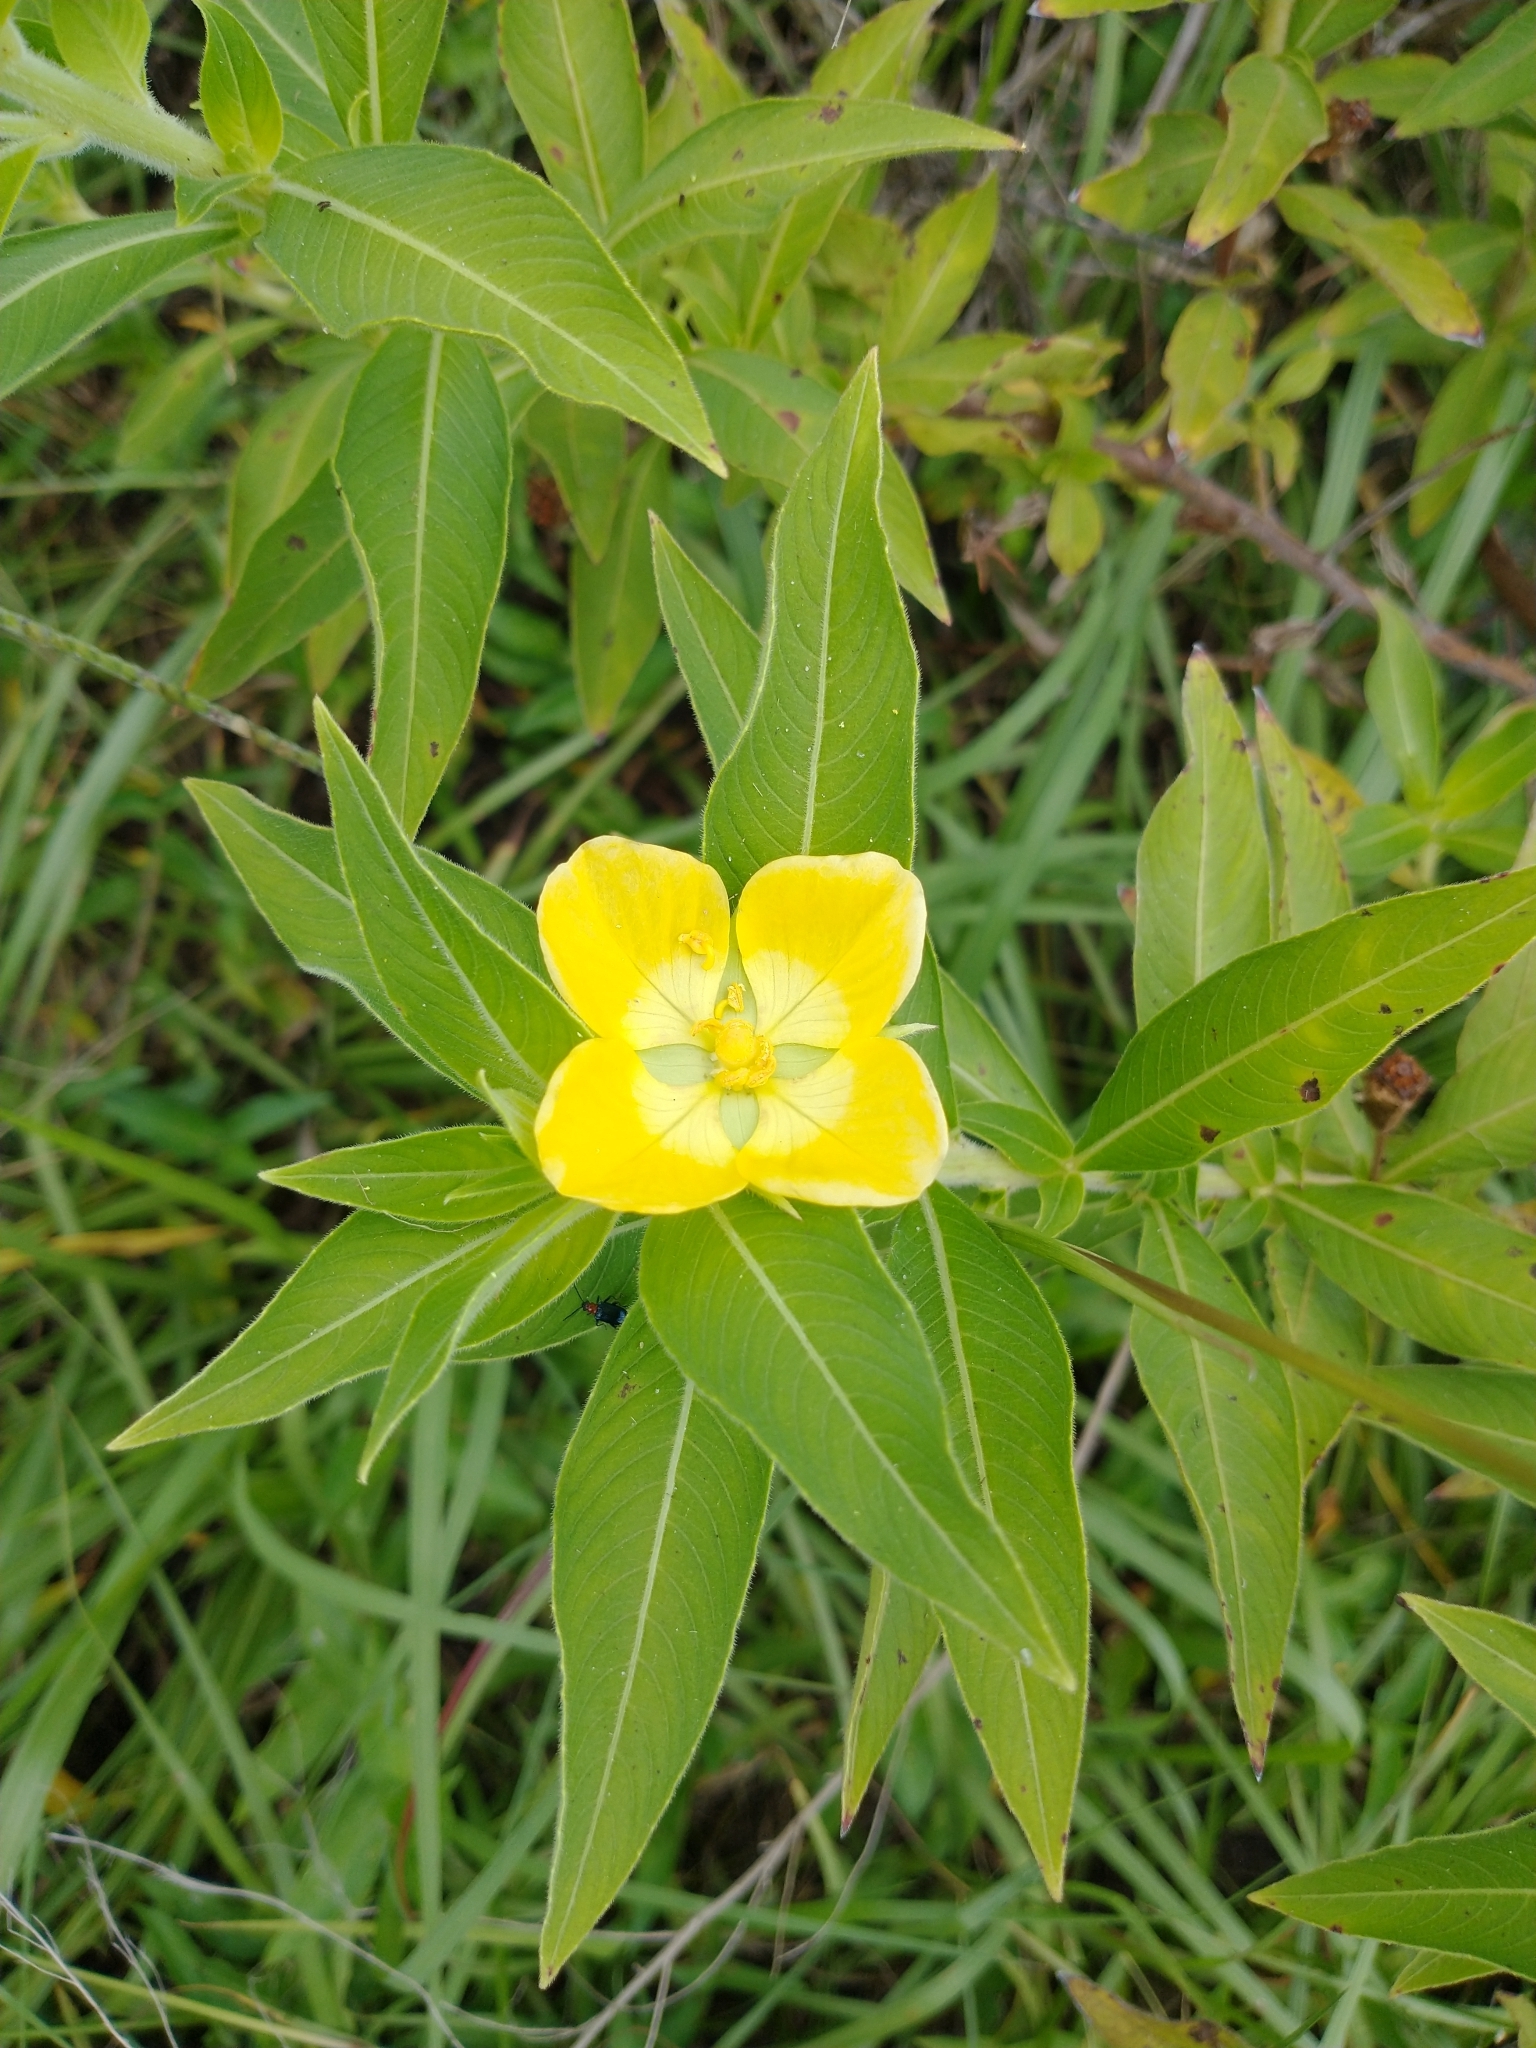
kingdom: Plantae
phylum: Tracheophyta
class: Magnoliopsida
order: Myrtales
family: Onagraceae
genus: Ludwigia
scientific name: Ludwigia peruviana
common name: Peruvian primrose-willow
